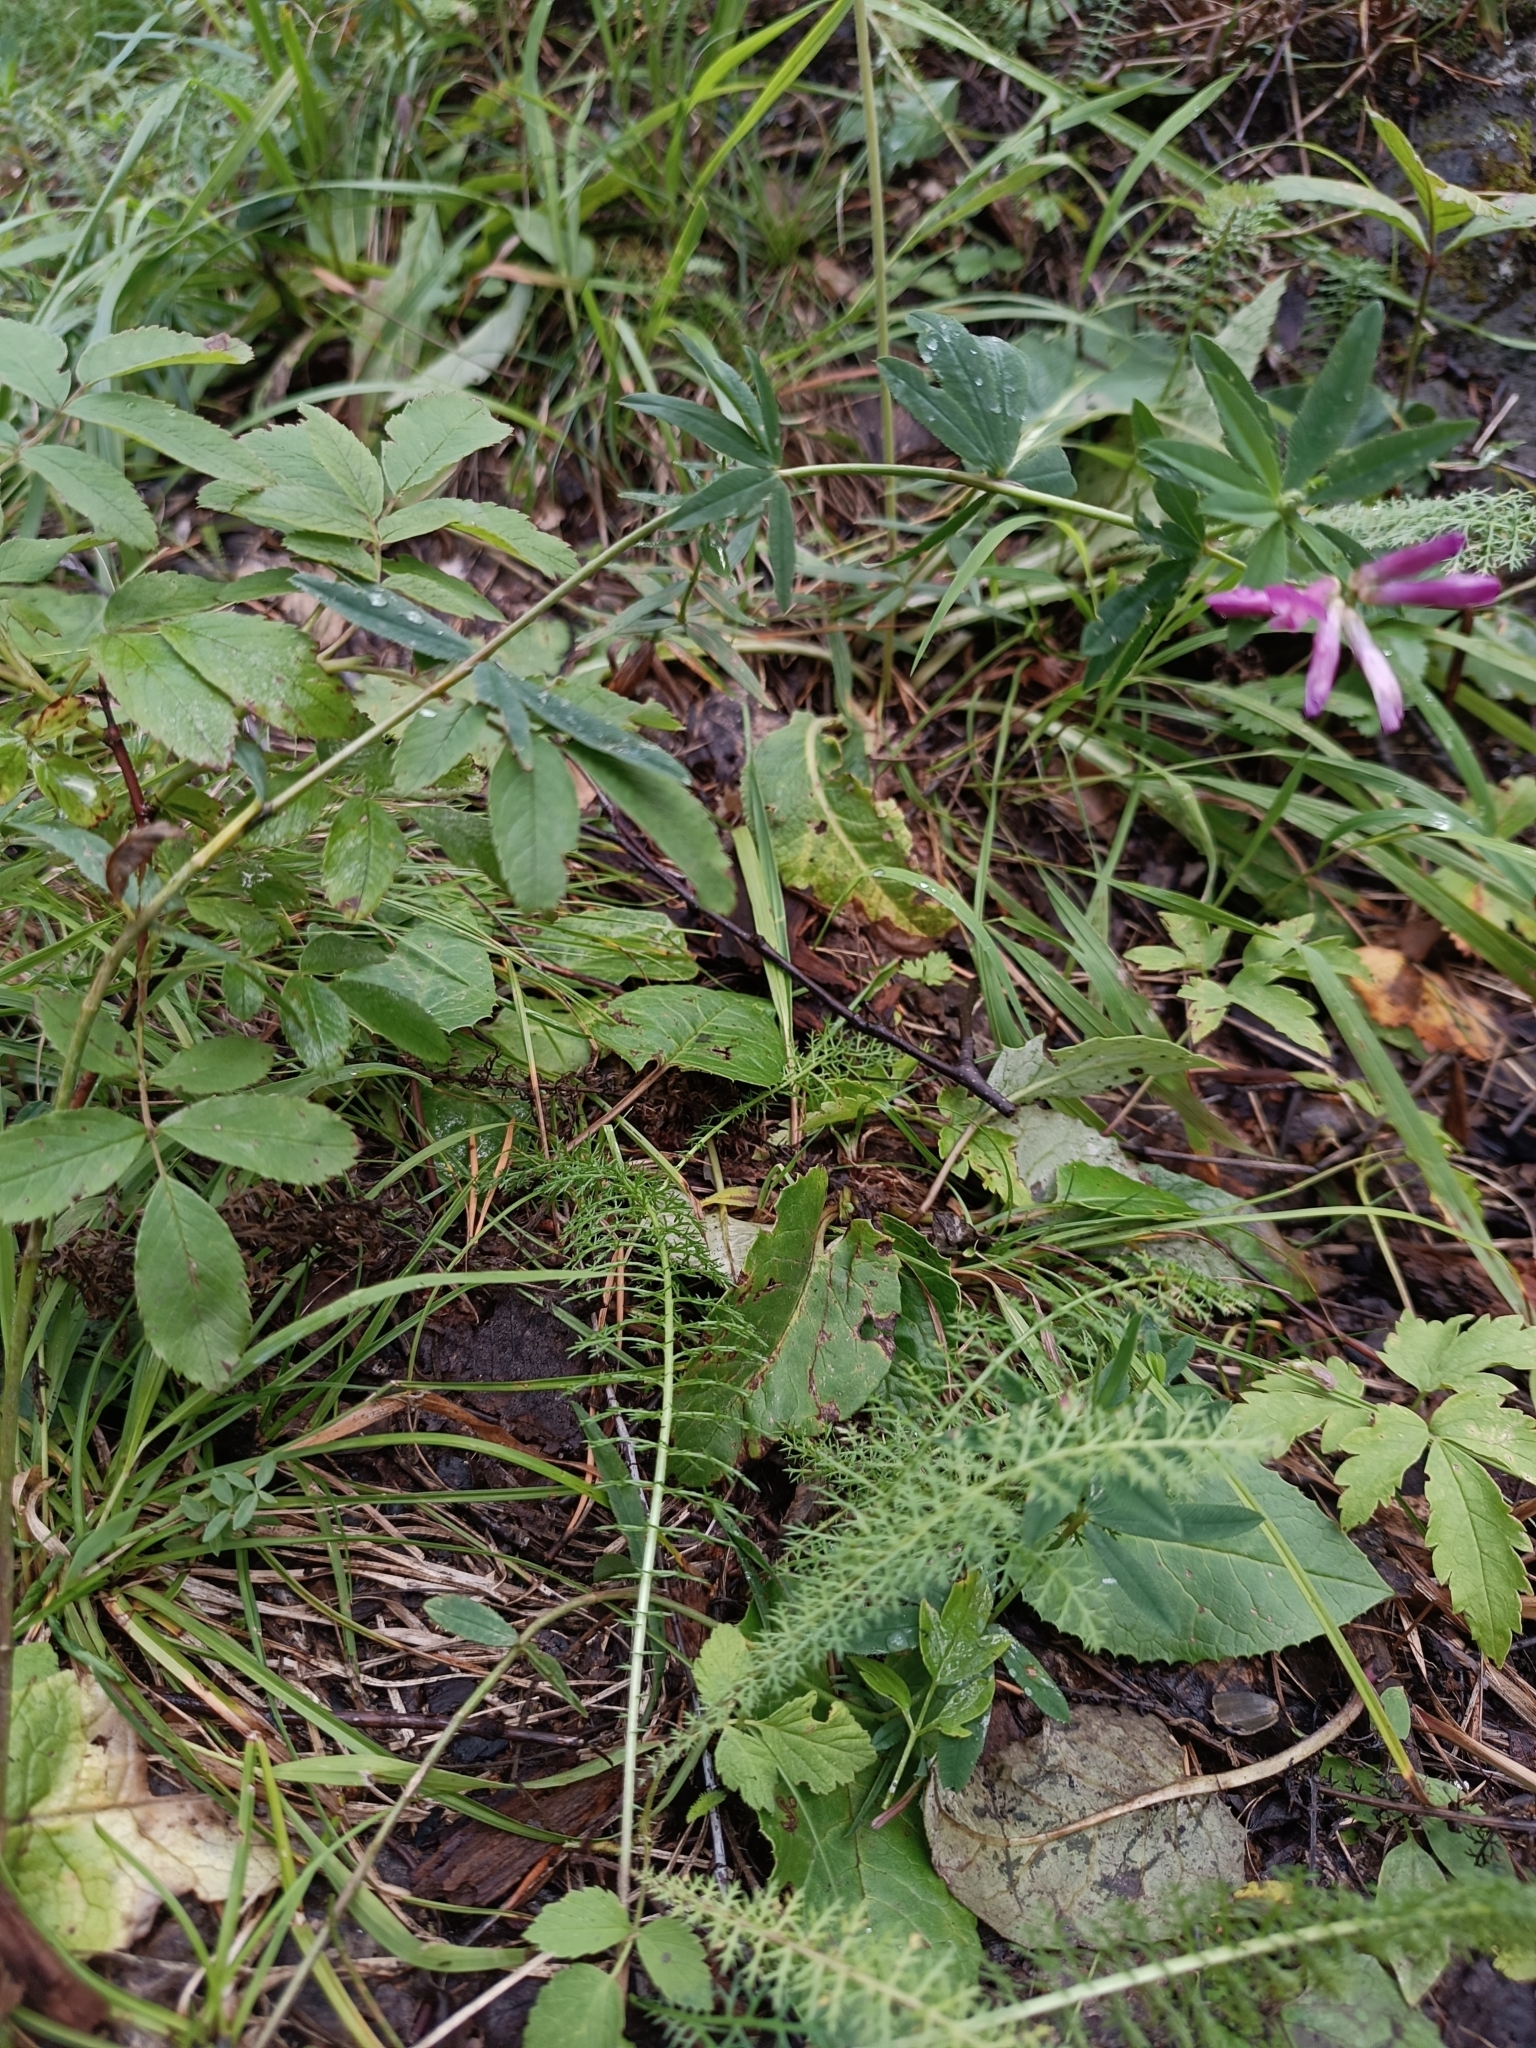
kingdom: Plantae
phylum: Tracheophyta
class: Magnoliopsida
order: Fabales
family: Fabaceae
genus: Trifolium
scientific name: Trifolium lupinaster
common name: Lupine clover
